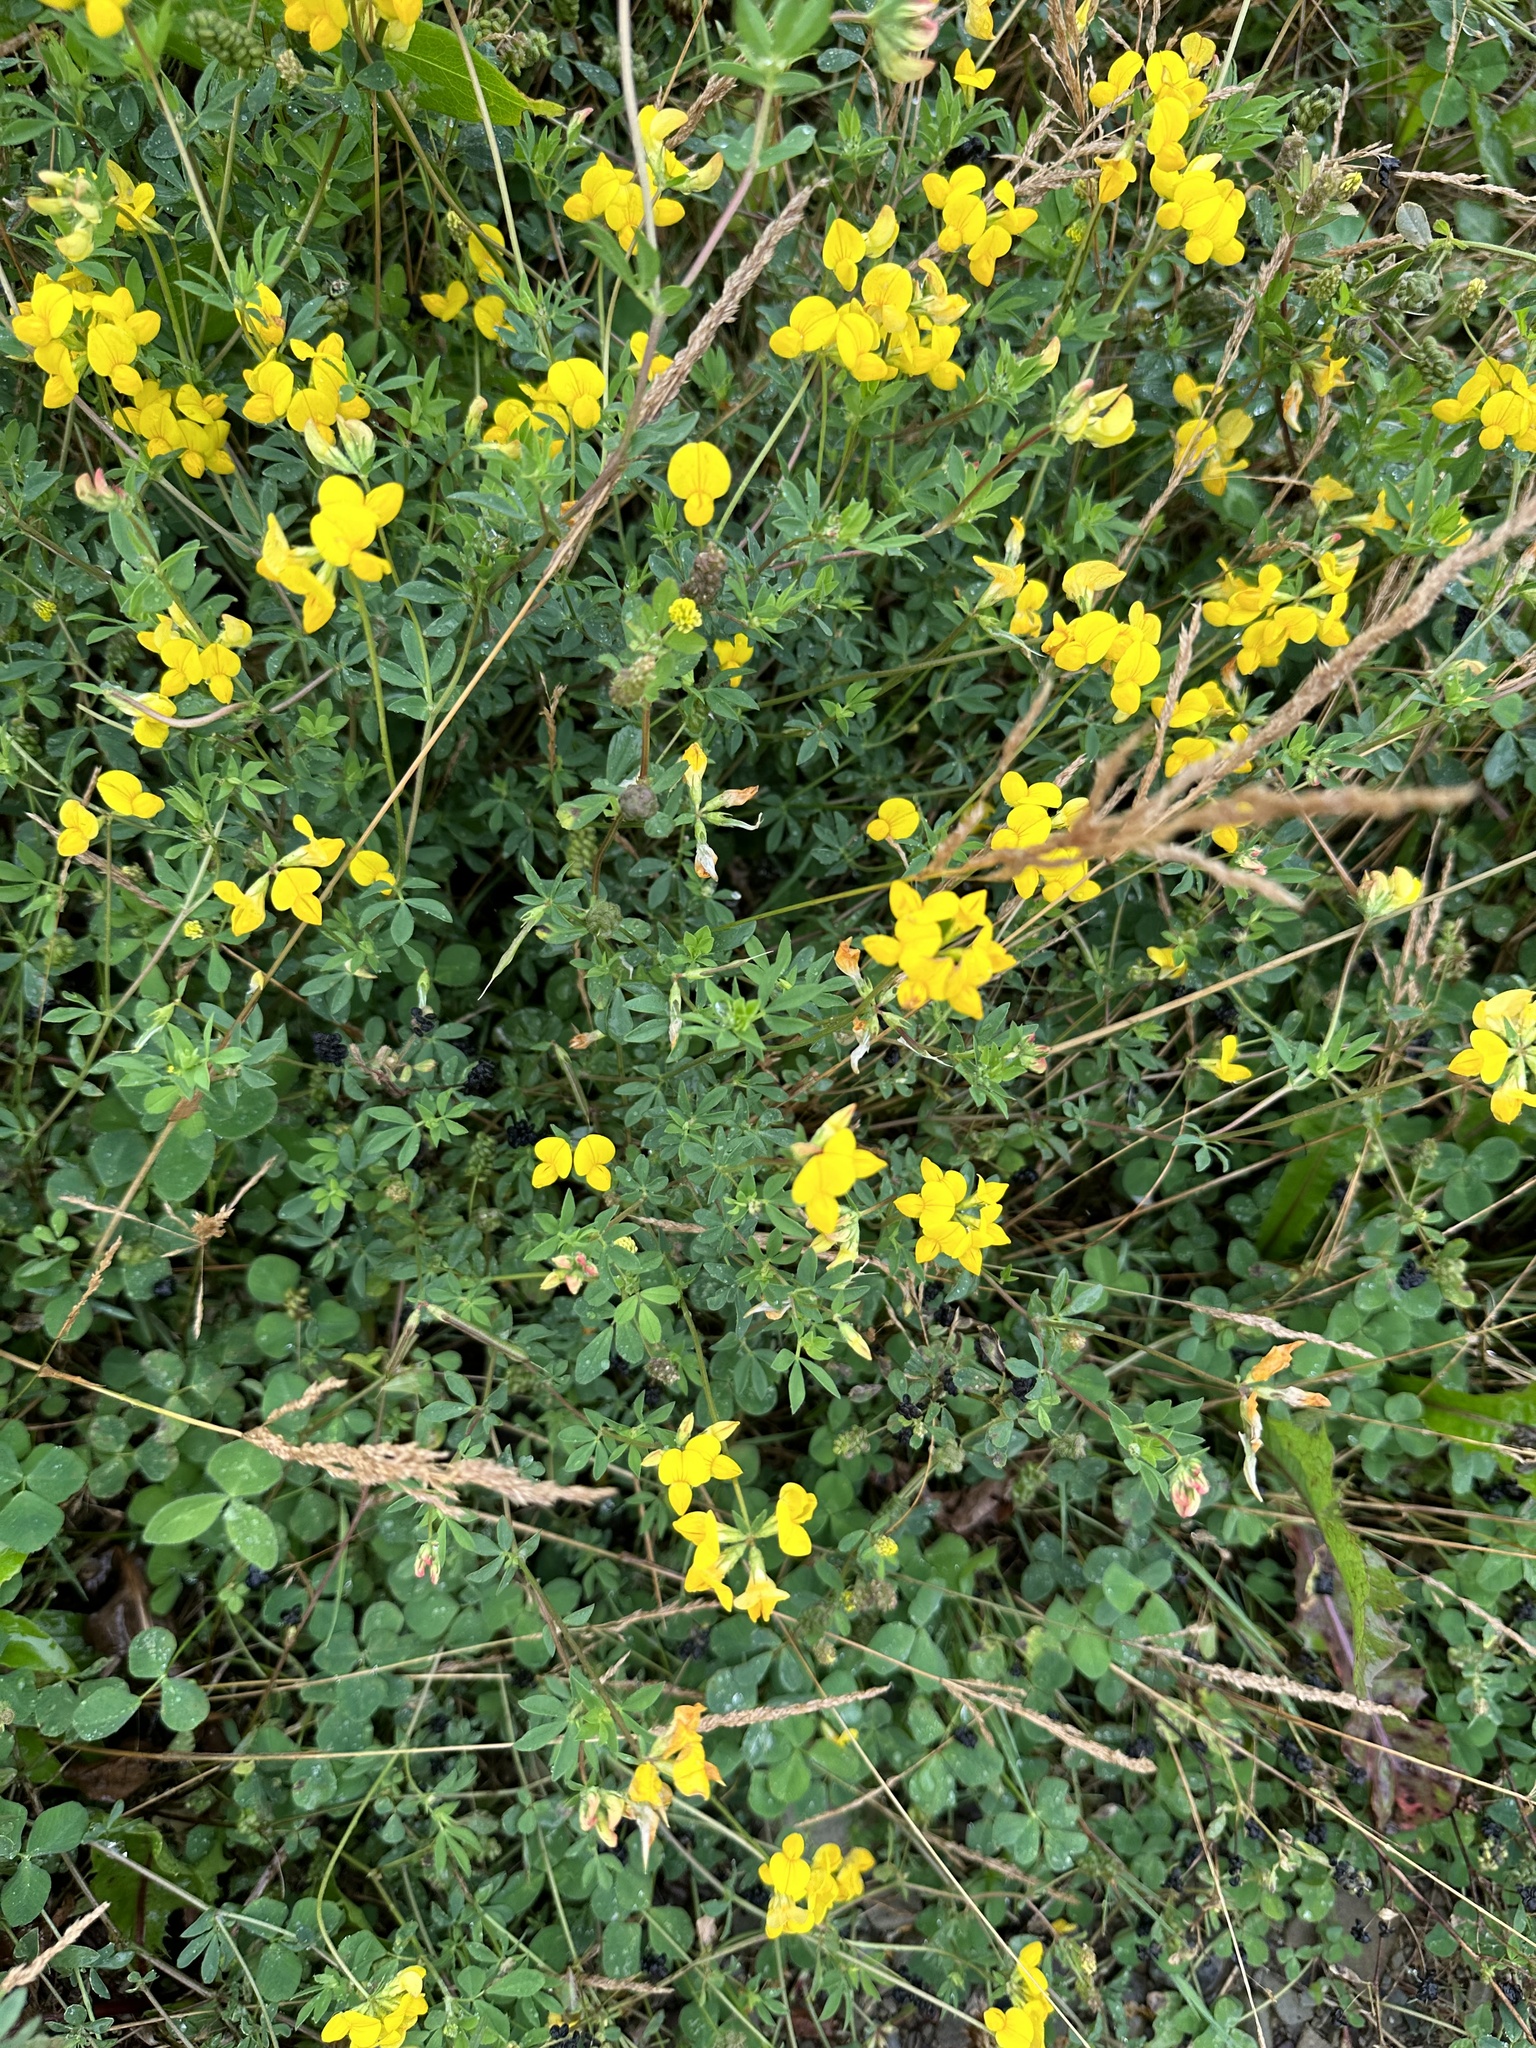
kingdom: Plantae
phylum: Tracheophyta
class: Magnoliopsida
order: Fabales
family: Fabaceae
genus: Lotus
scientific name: Lotus corniculatus
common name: Common bird's-foot-trefoil
